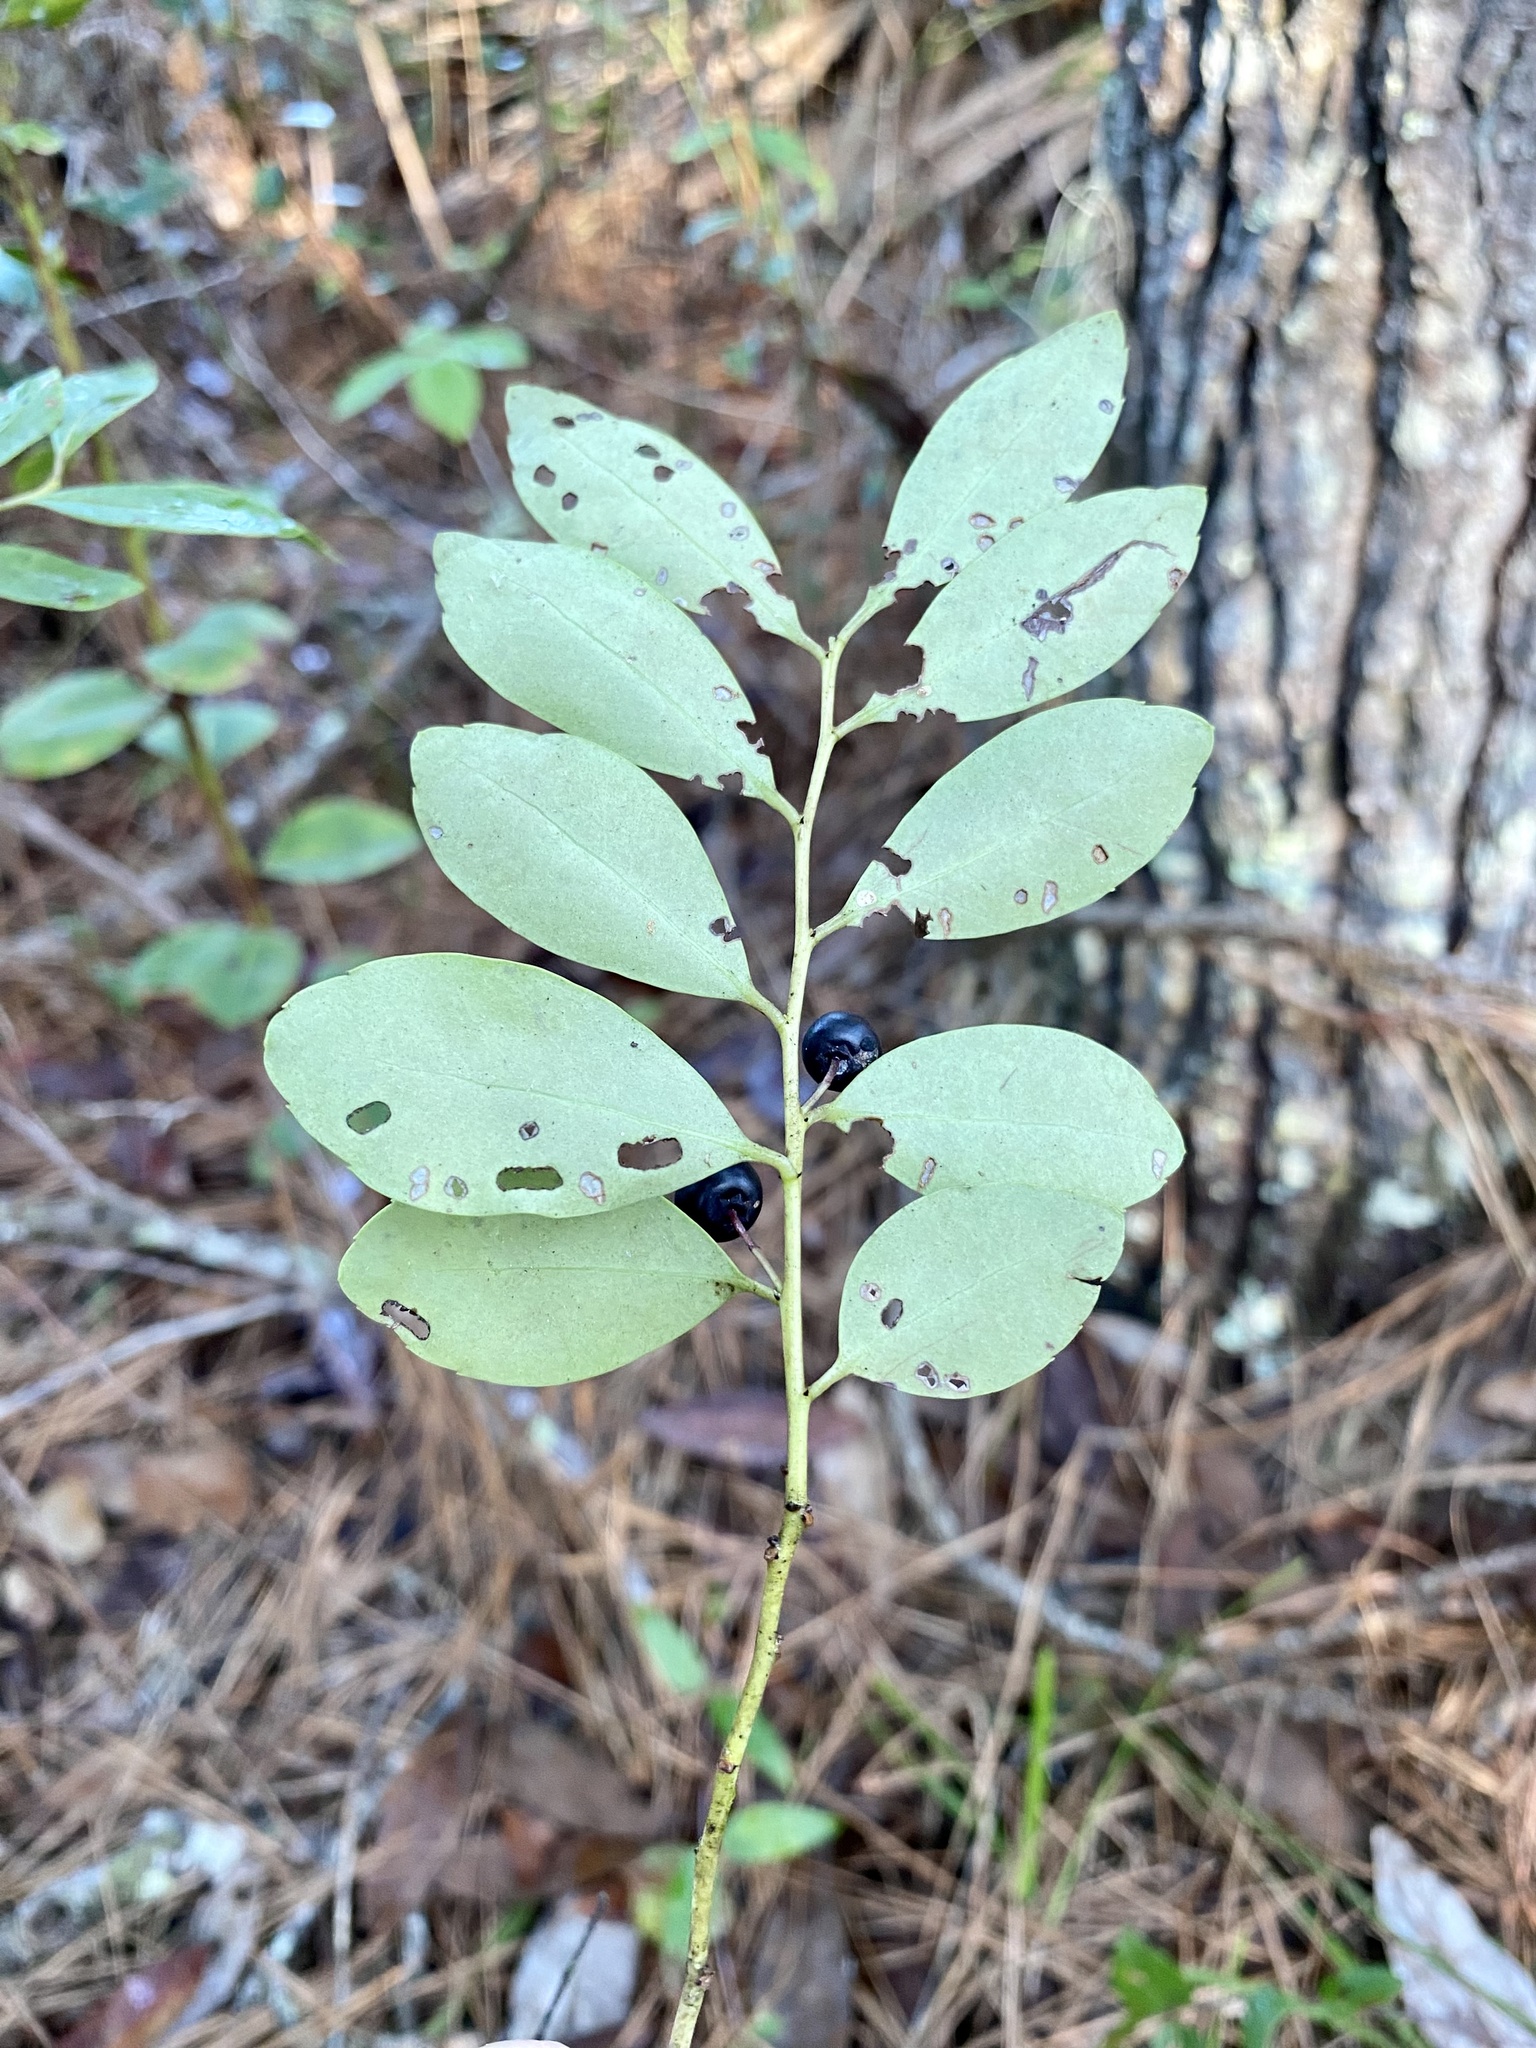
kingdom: Plantae
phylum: Tracheophyta
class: Magnoliopsida
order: Aquifoliales
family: Aquifoliaceae
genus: Ilex
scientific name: Ilex glabra
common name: Bitter gallberry
